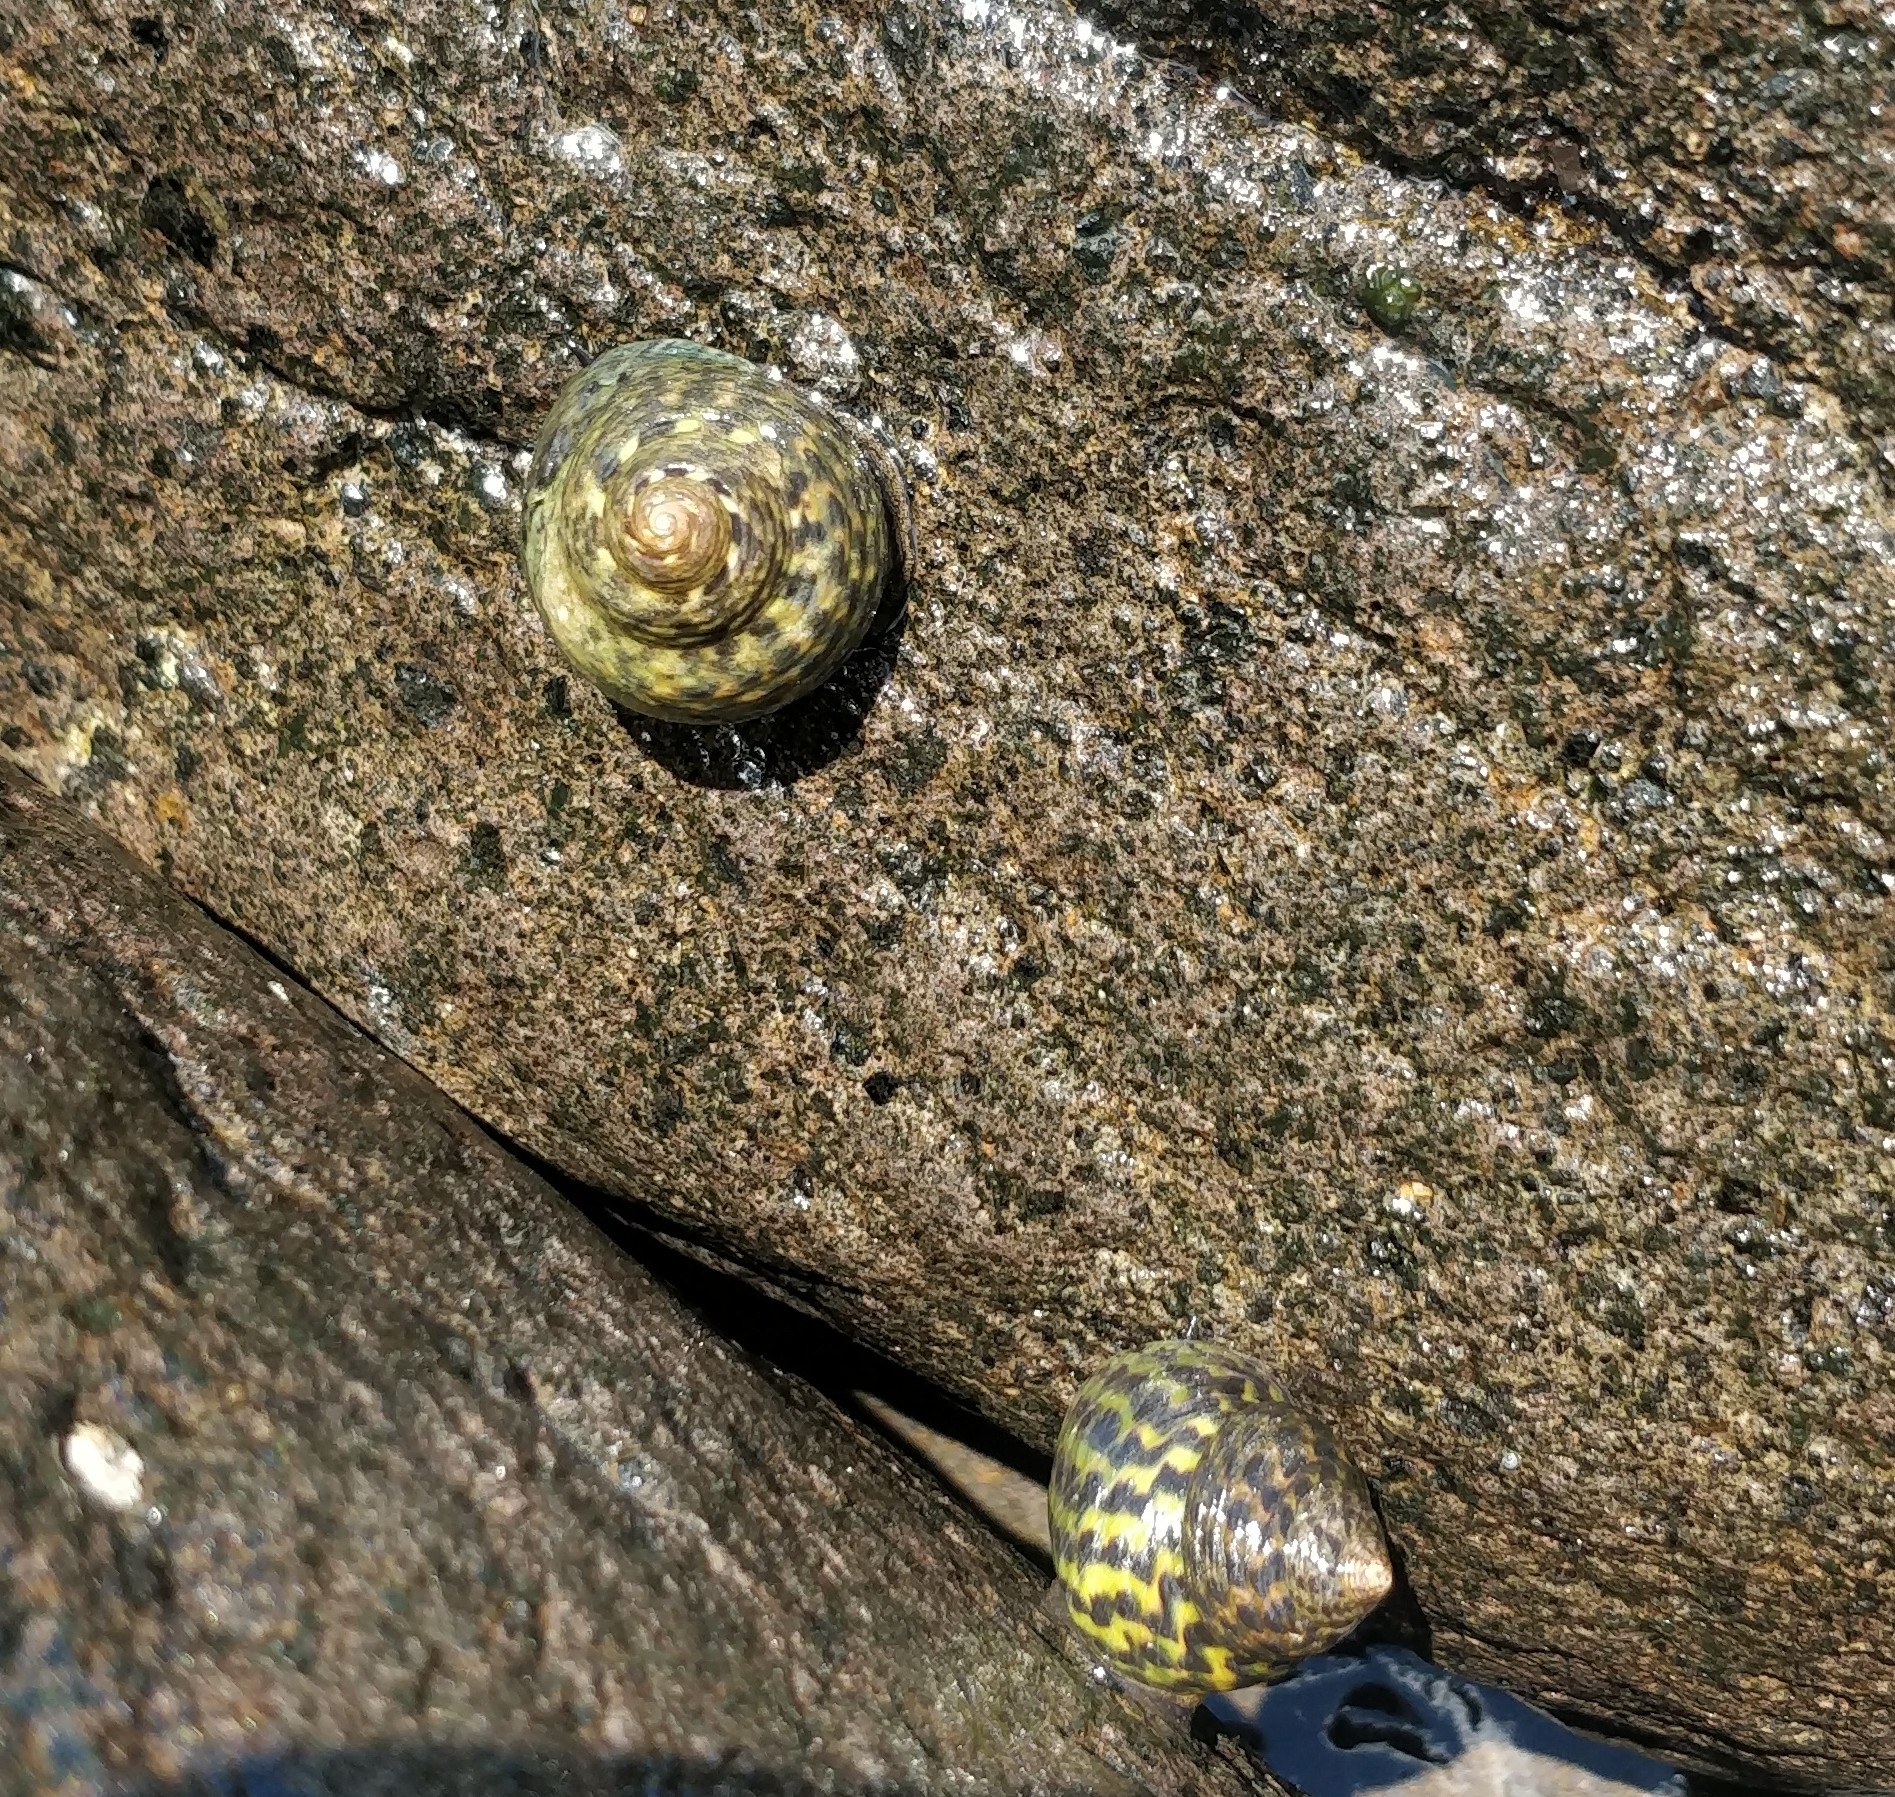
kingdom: Animalia
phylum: Mollusca
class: Gastropoda
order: Trochida
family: Trochidae
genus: Phorcus
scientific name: Phorcus sauciatus
